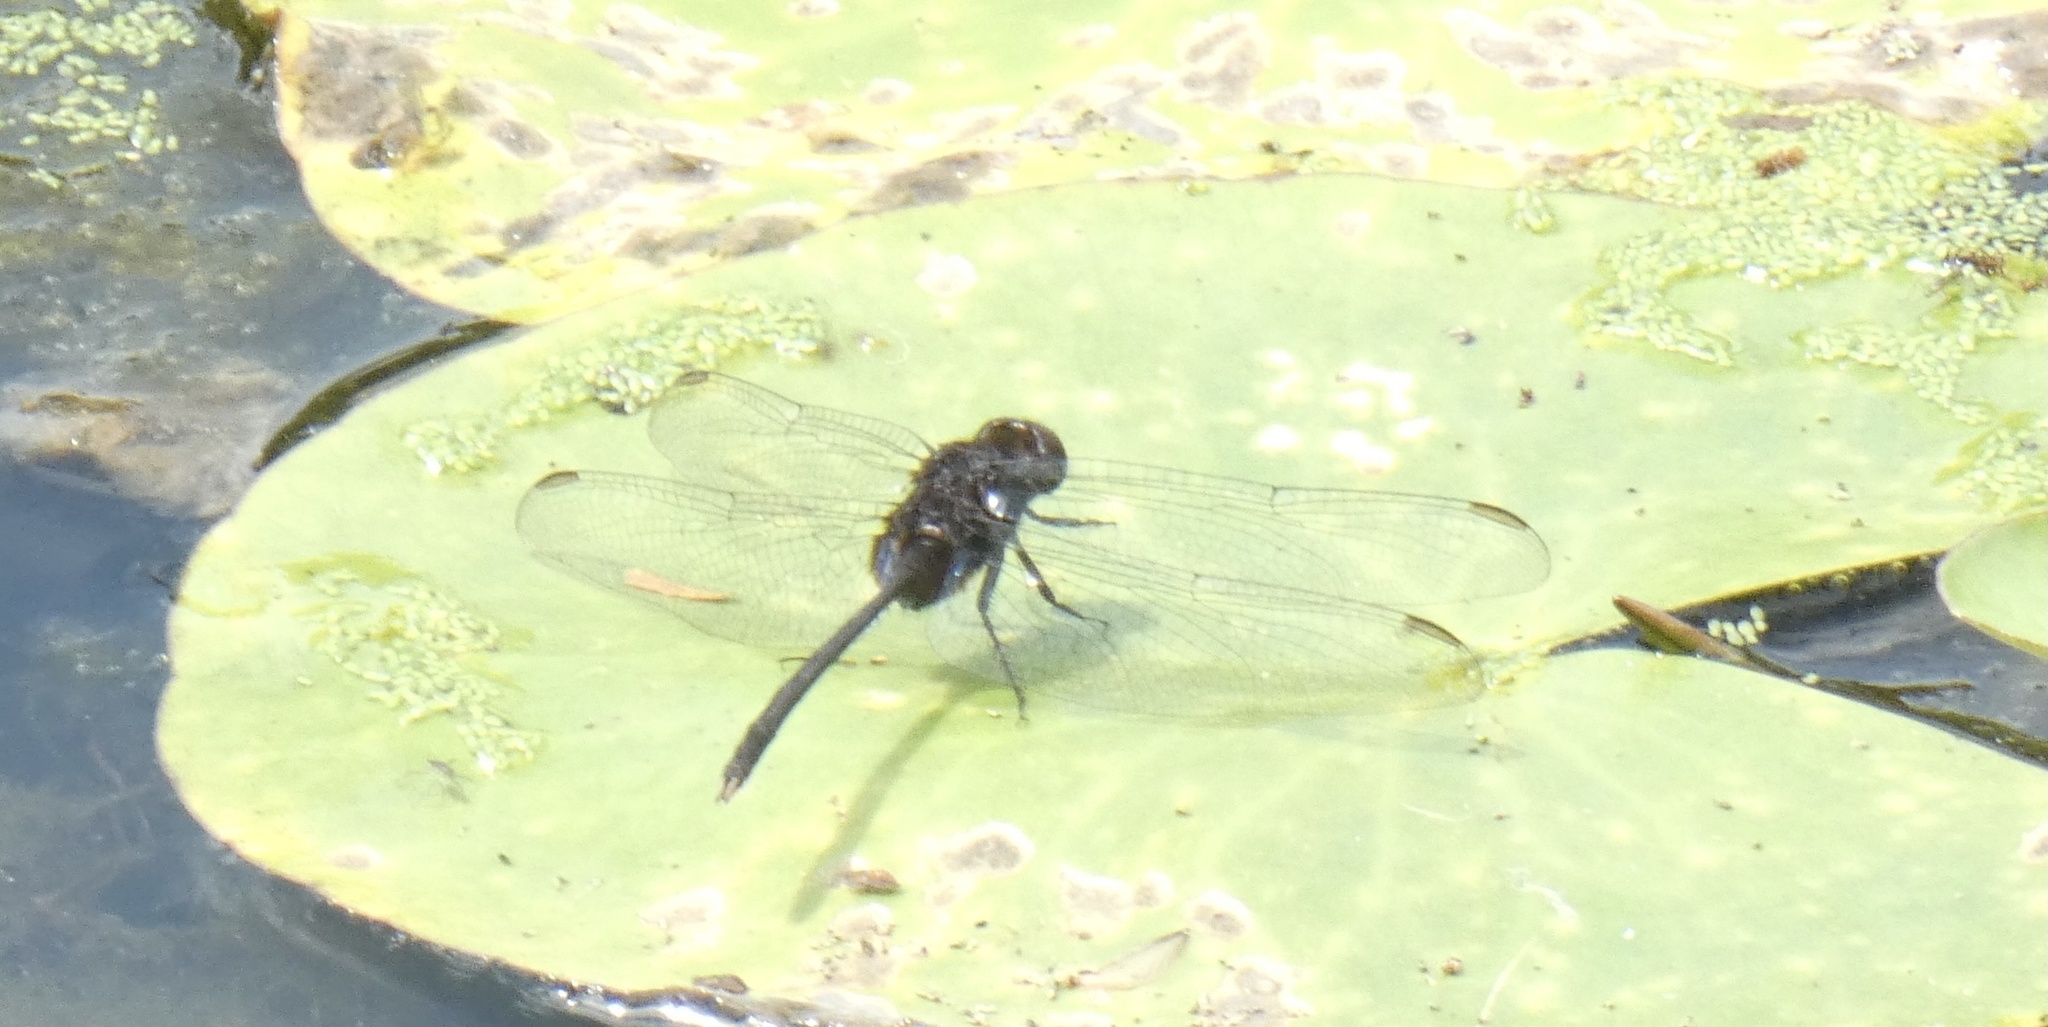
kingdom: Animalia
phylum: Arthropoda
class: Insecta
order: Odonata
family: Libellulidae
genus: Erythemis
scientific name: Erythemis plebeja
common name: Pin-tailed pondhawk
